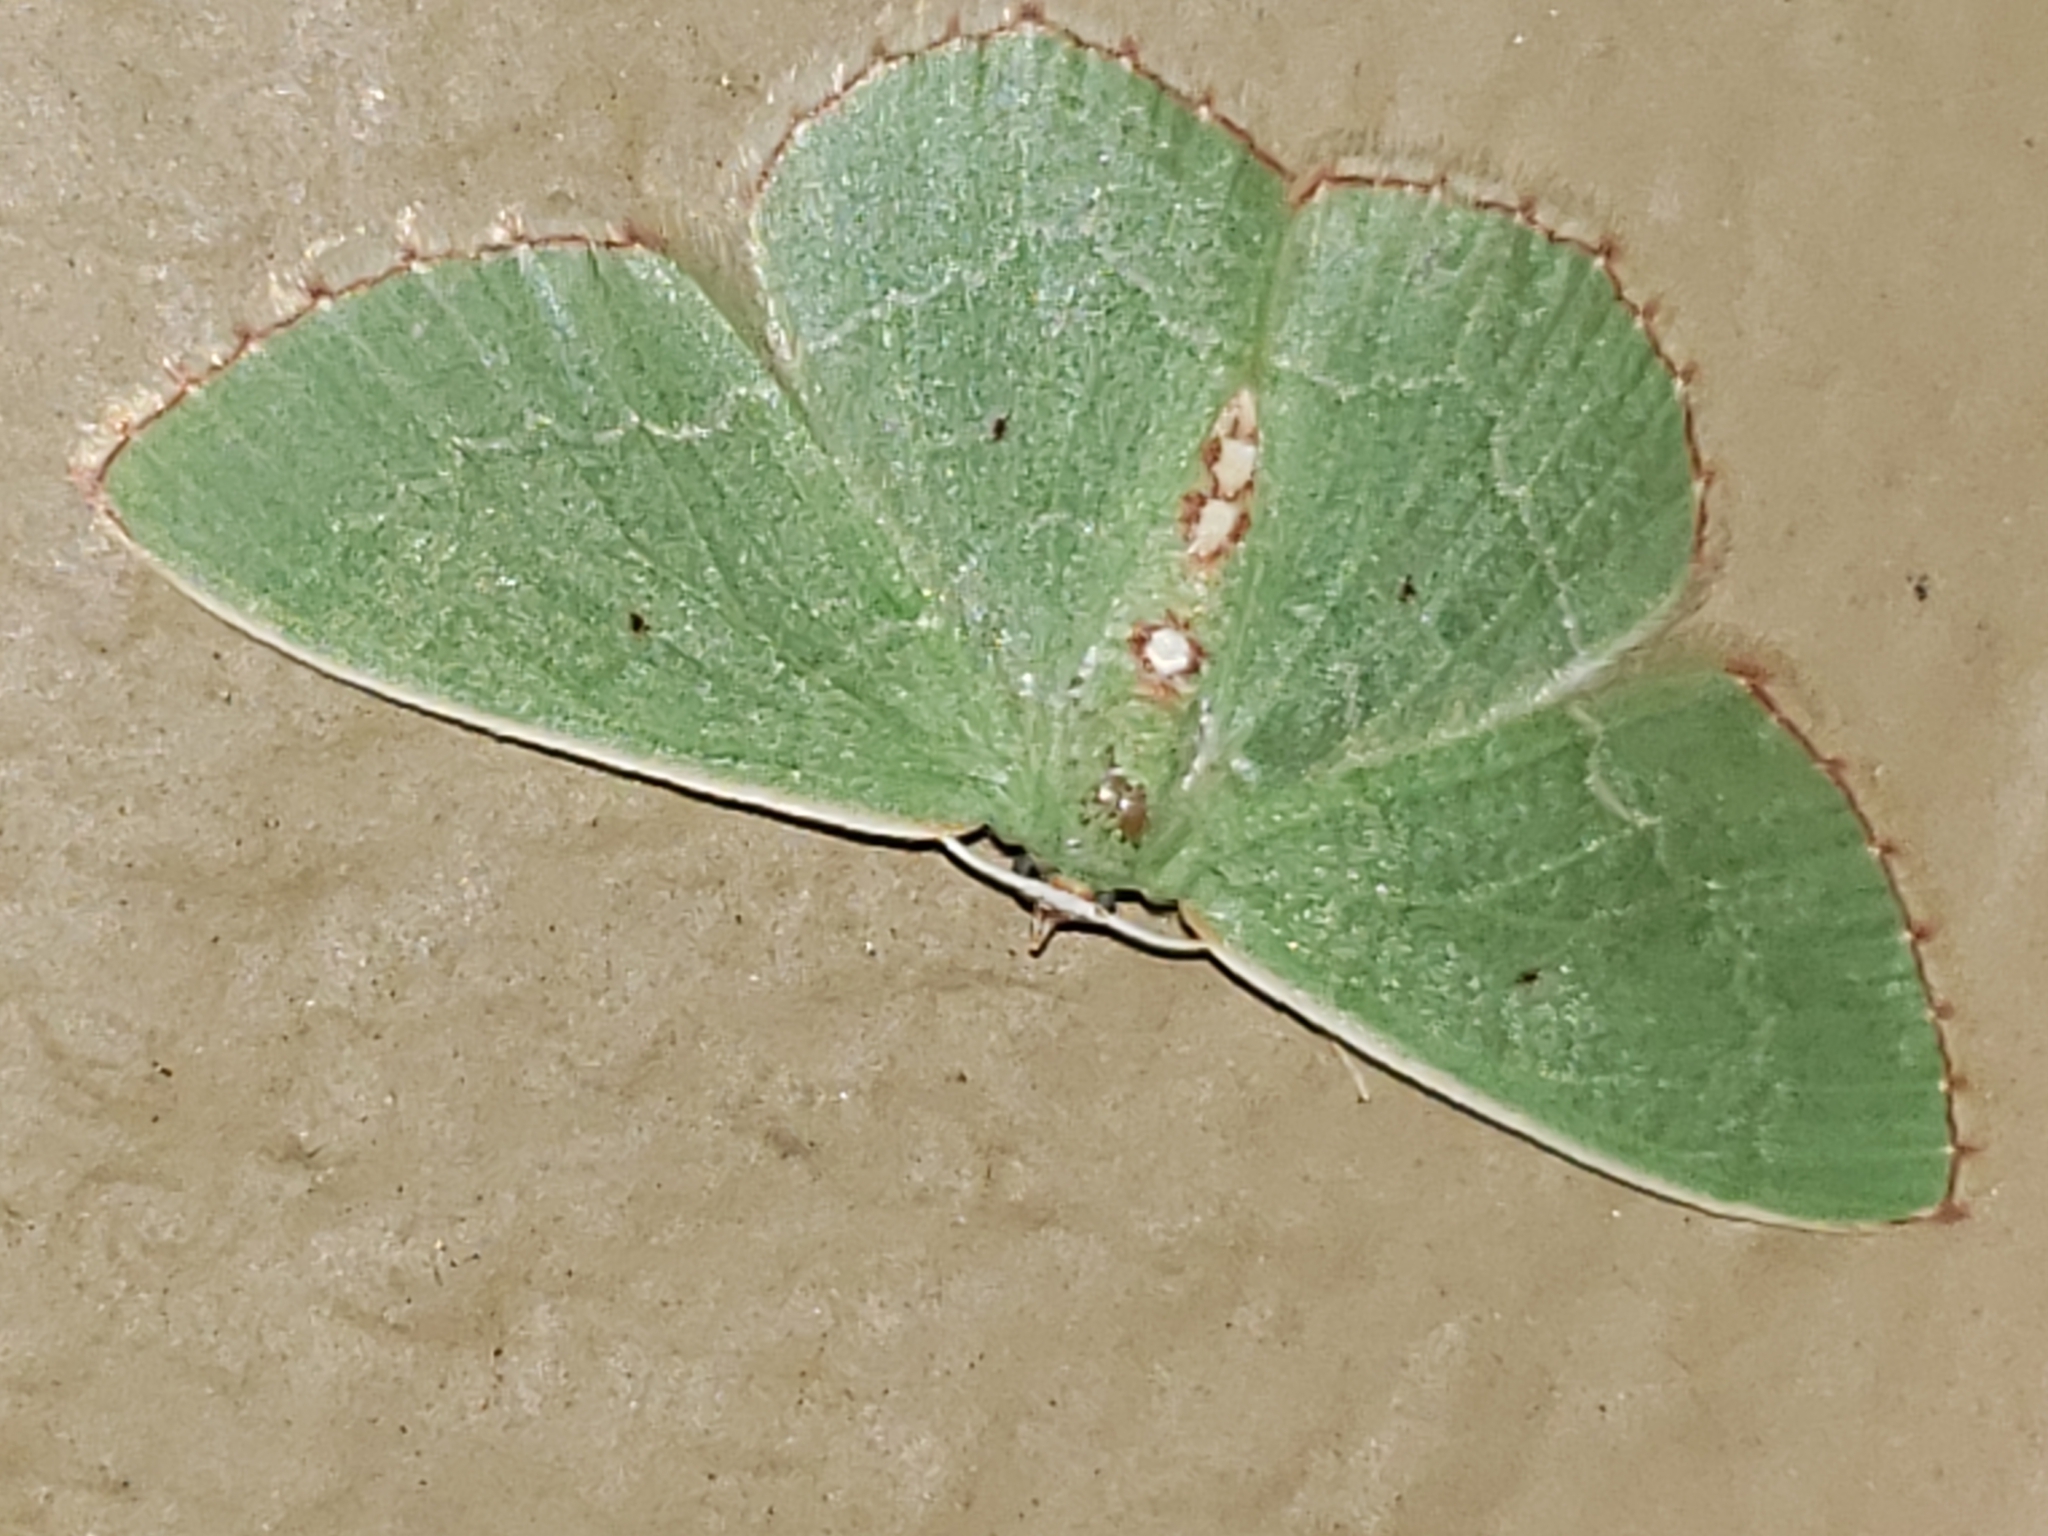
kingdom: Animalia
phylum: Arthropoda
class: Insecta
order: Lepidoptera
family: Geometridae
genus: Nemoria
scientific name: Nemoria lixaria
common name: Red-bordered emerald
